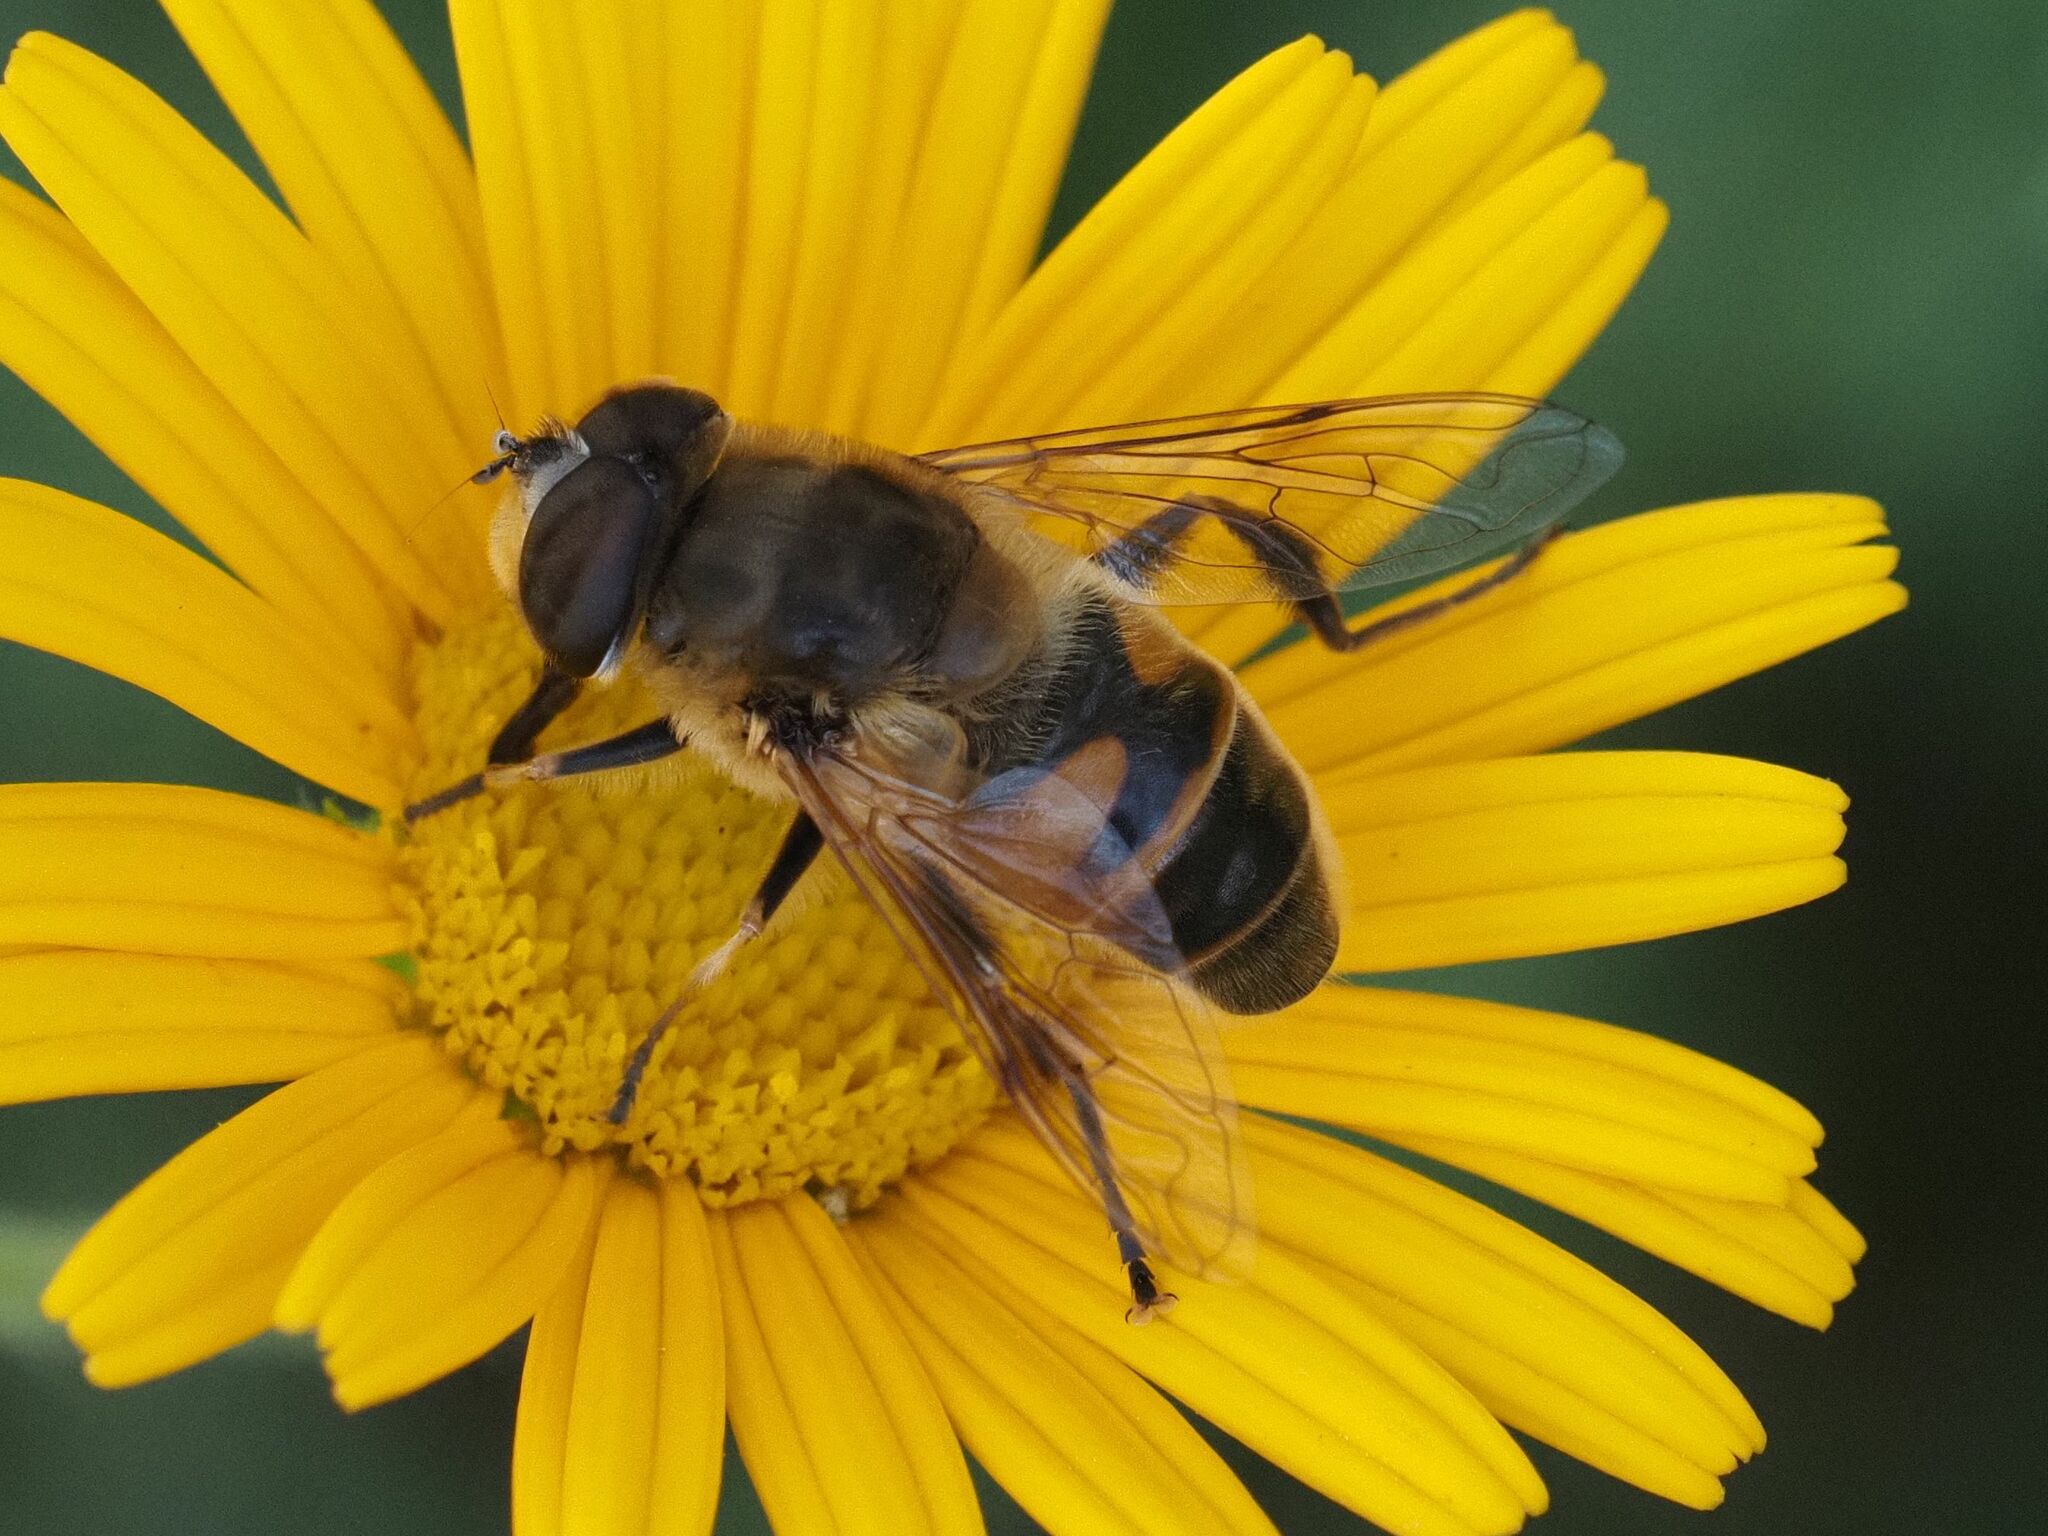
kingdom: Animalia
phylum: Arthropoda
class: Insecta
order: Diptera
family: Syrphidae
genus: Eristalis
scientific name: Eristalis tenax
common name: Drone fly
